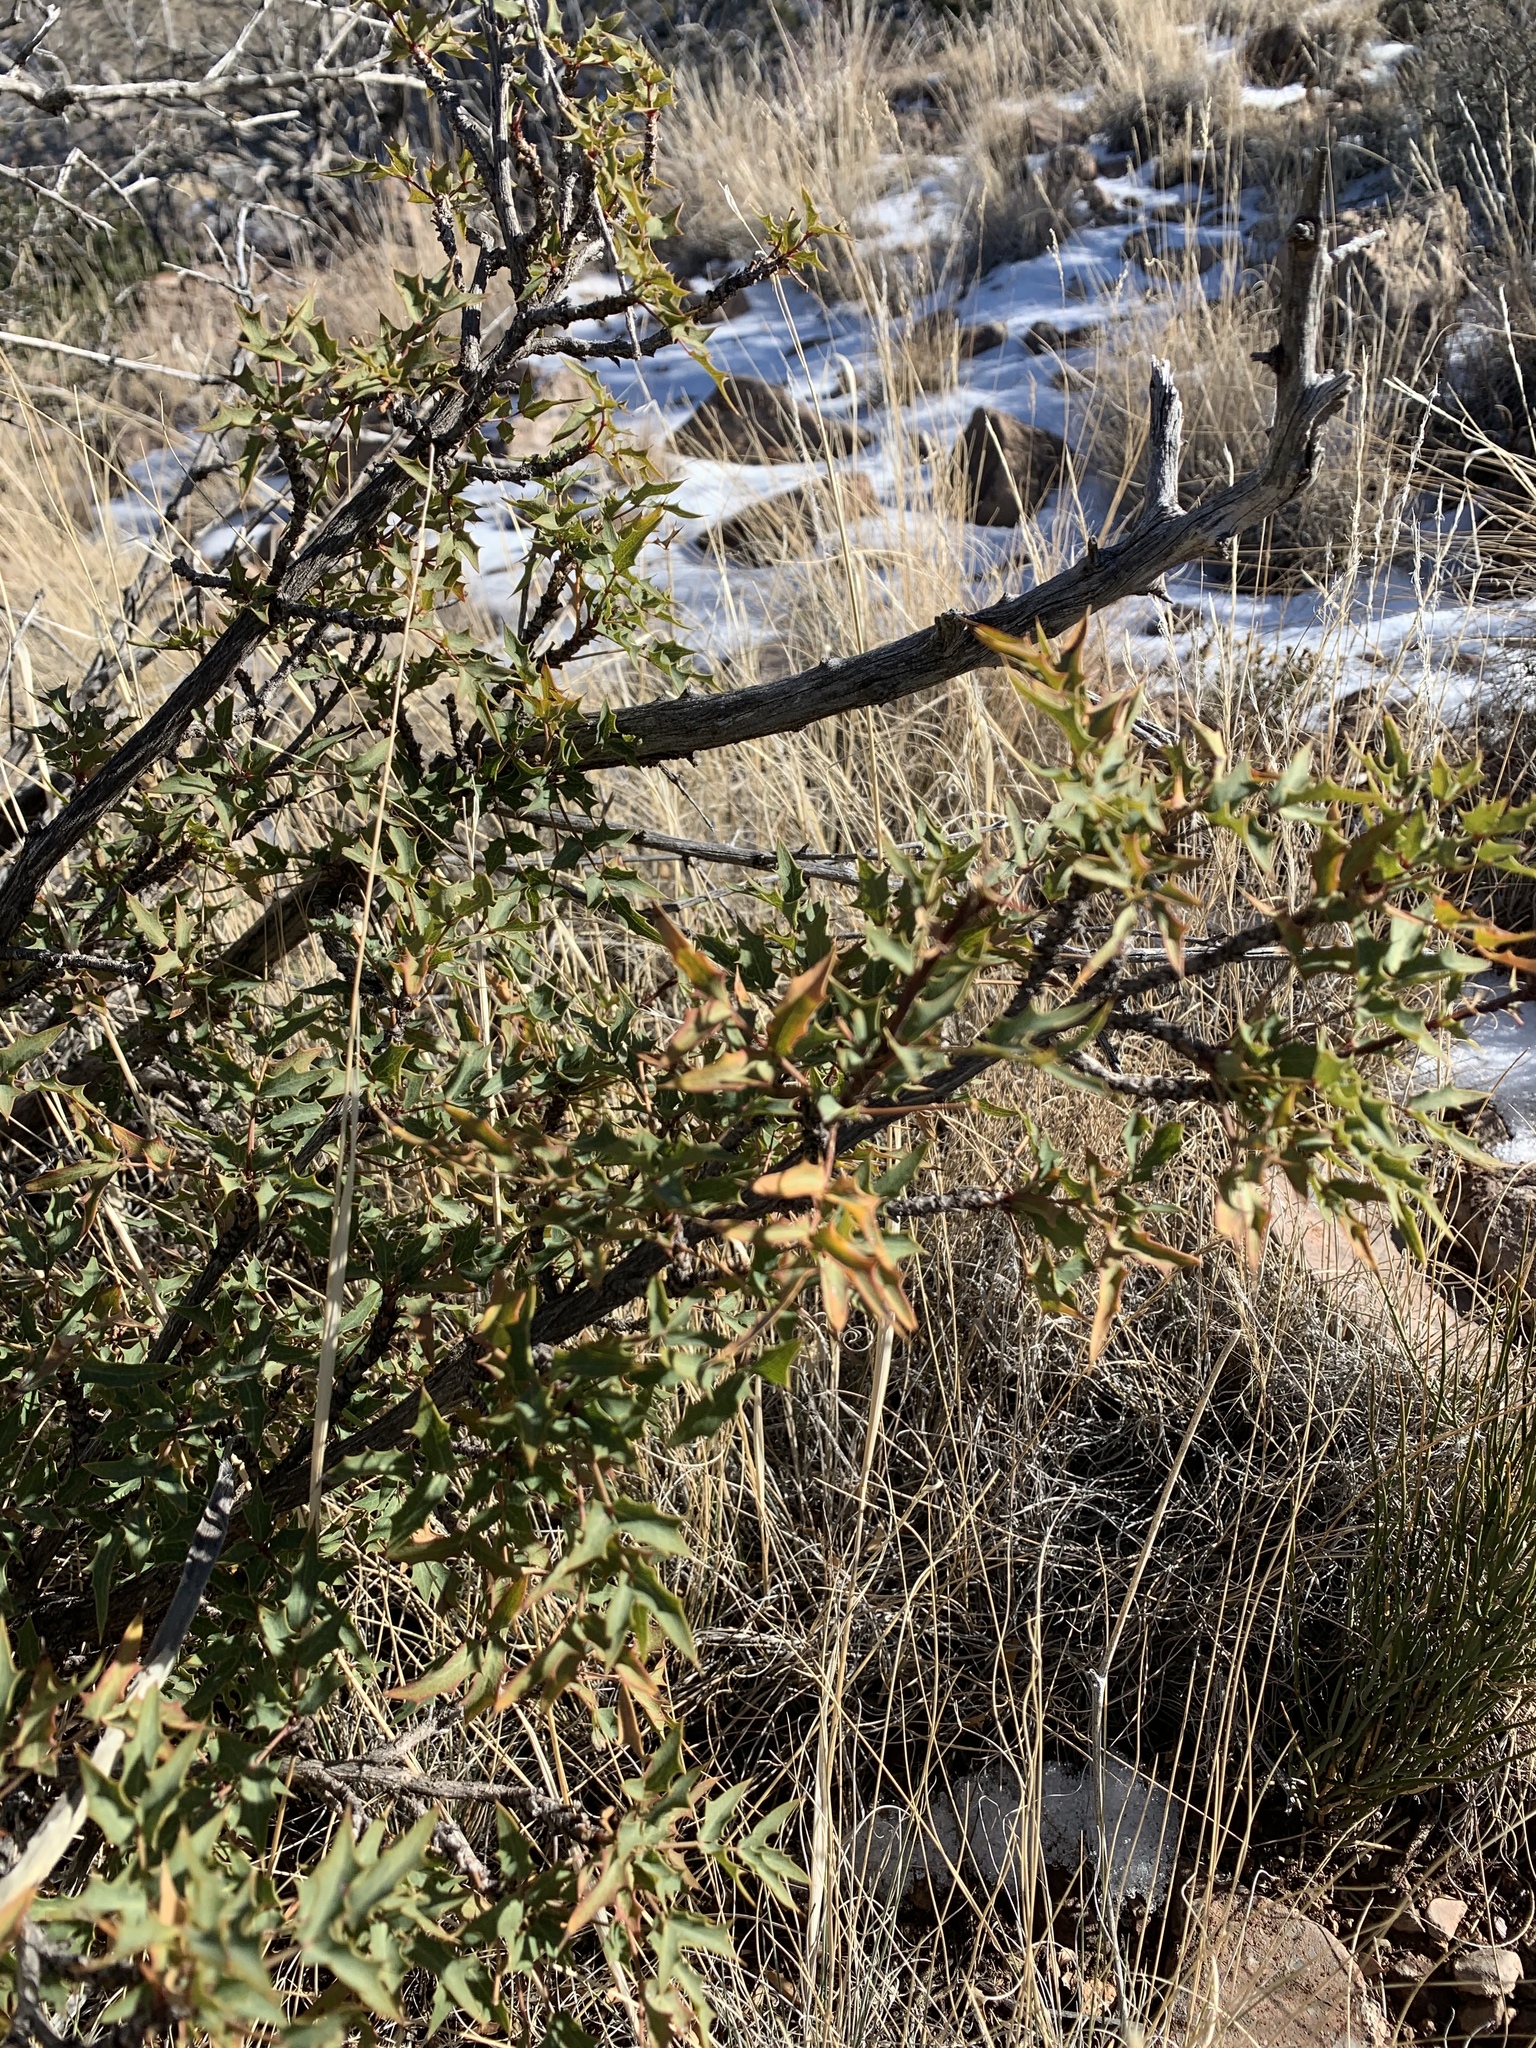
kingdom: Plantae
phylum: Tracheophyta
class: Magnoliopsida
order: Ranunculales
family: Berberidaceae
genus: Alloberberis
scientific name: Alloberberis haematocarpa
